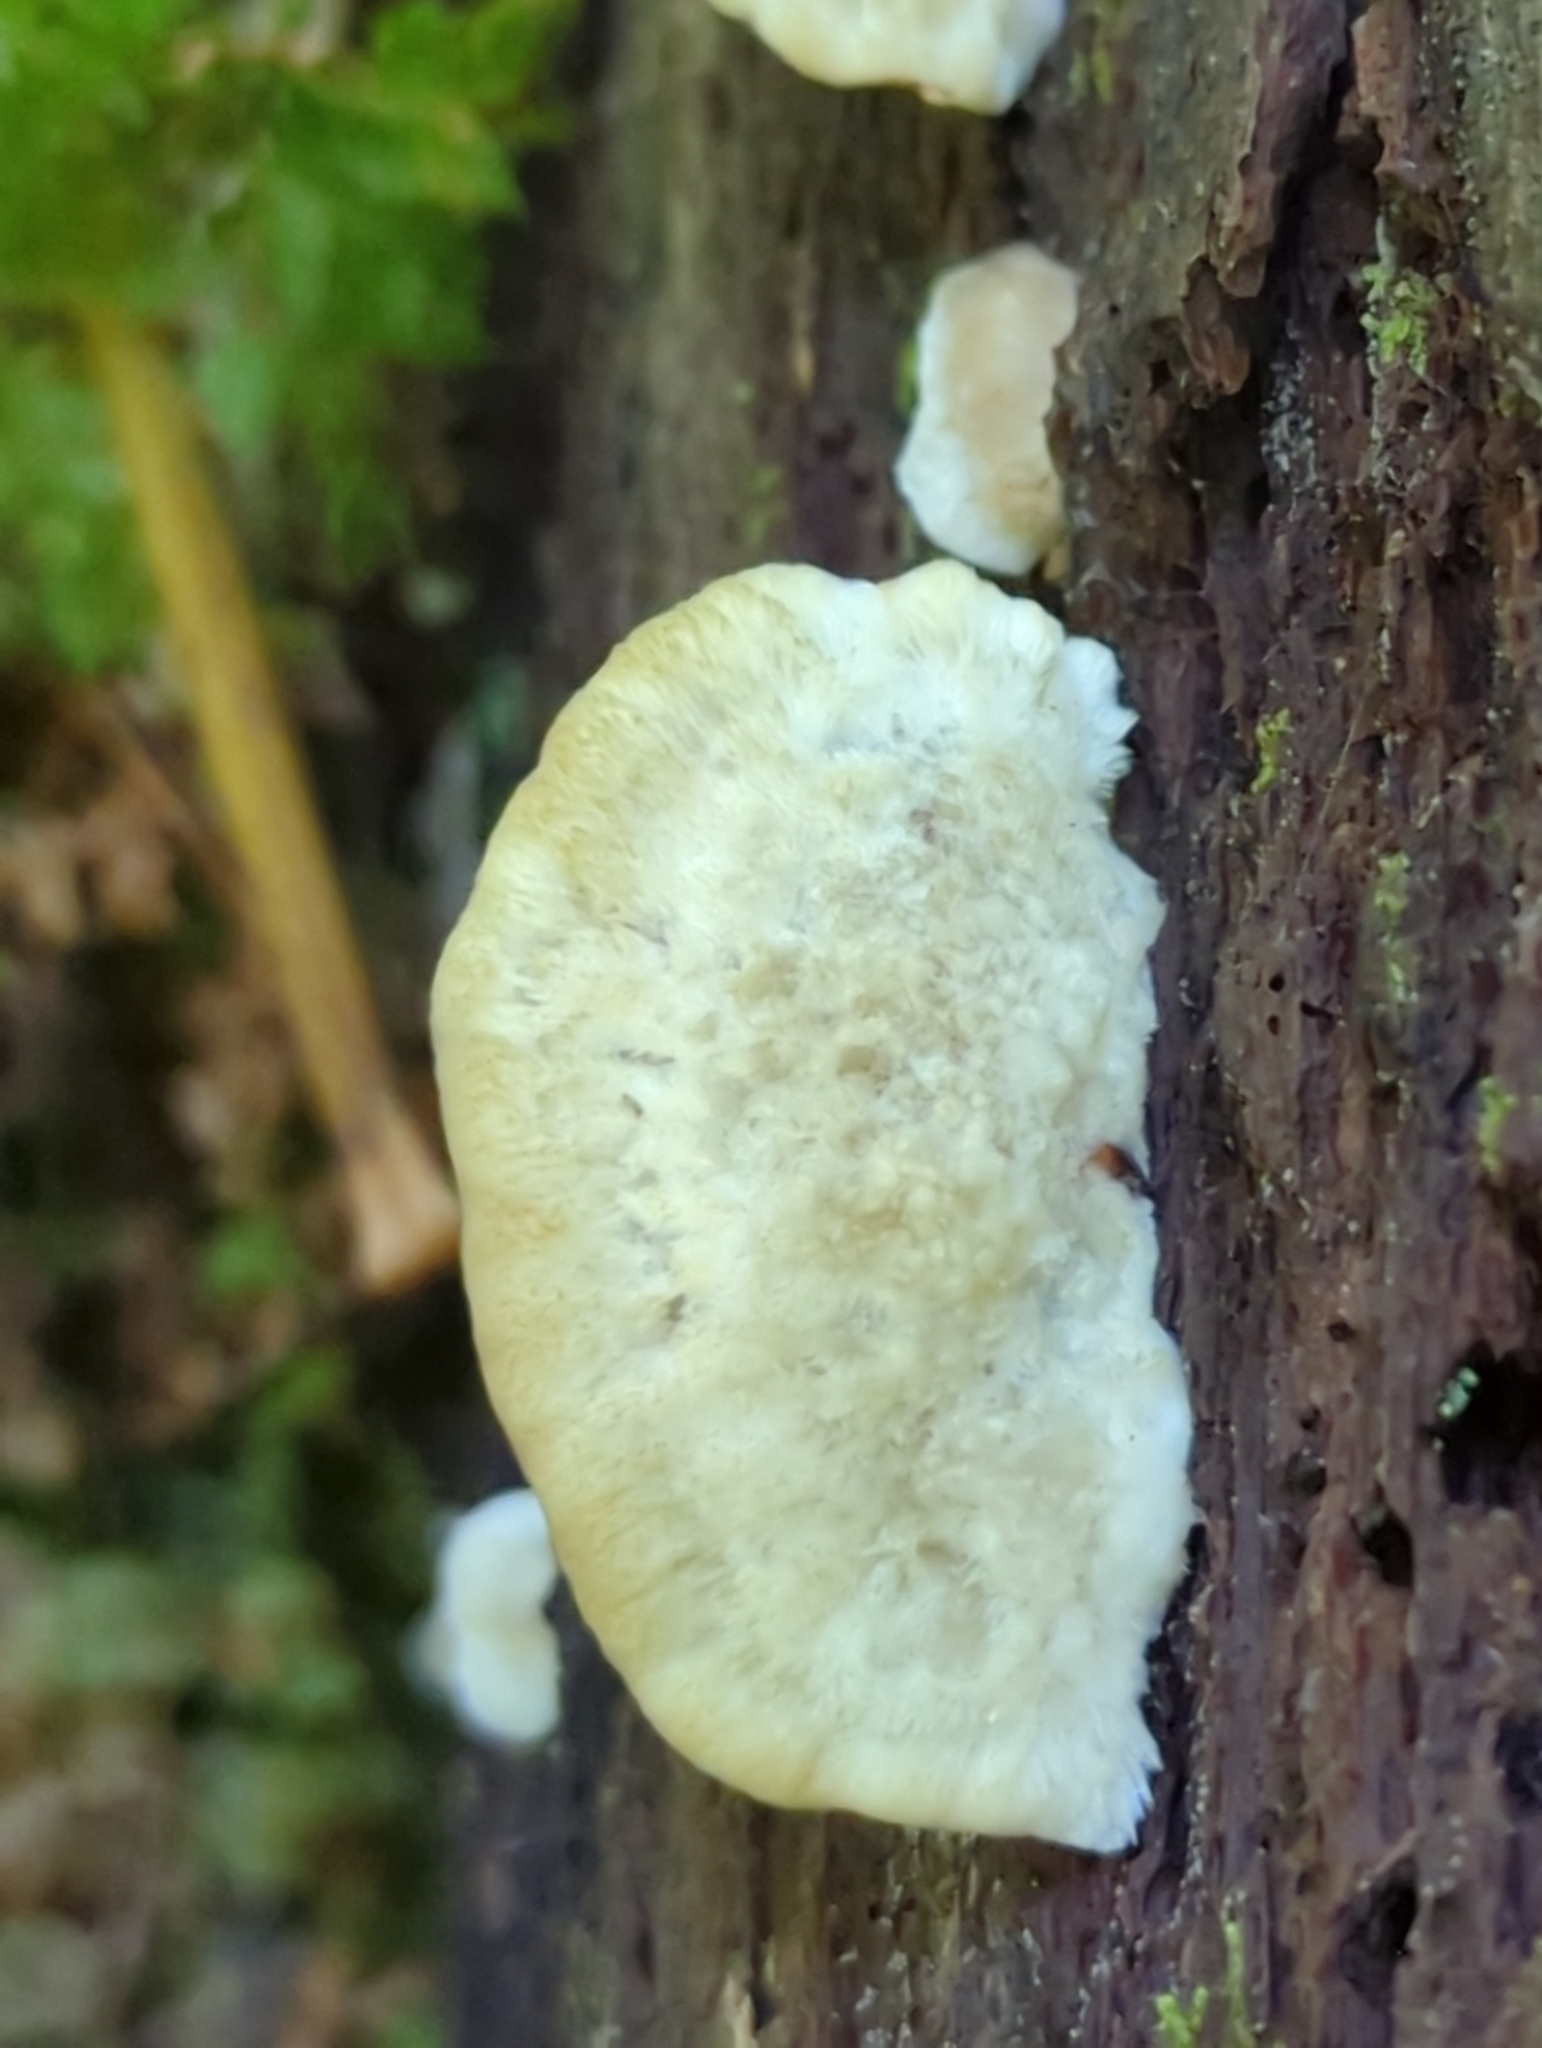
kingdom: Fungi
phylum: Basidiomycota
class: Agaricomycetes
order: Polyporales
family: Incrustoporiaceae
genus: Tyromyces
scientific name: Tyromyces galactinus
